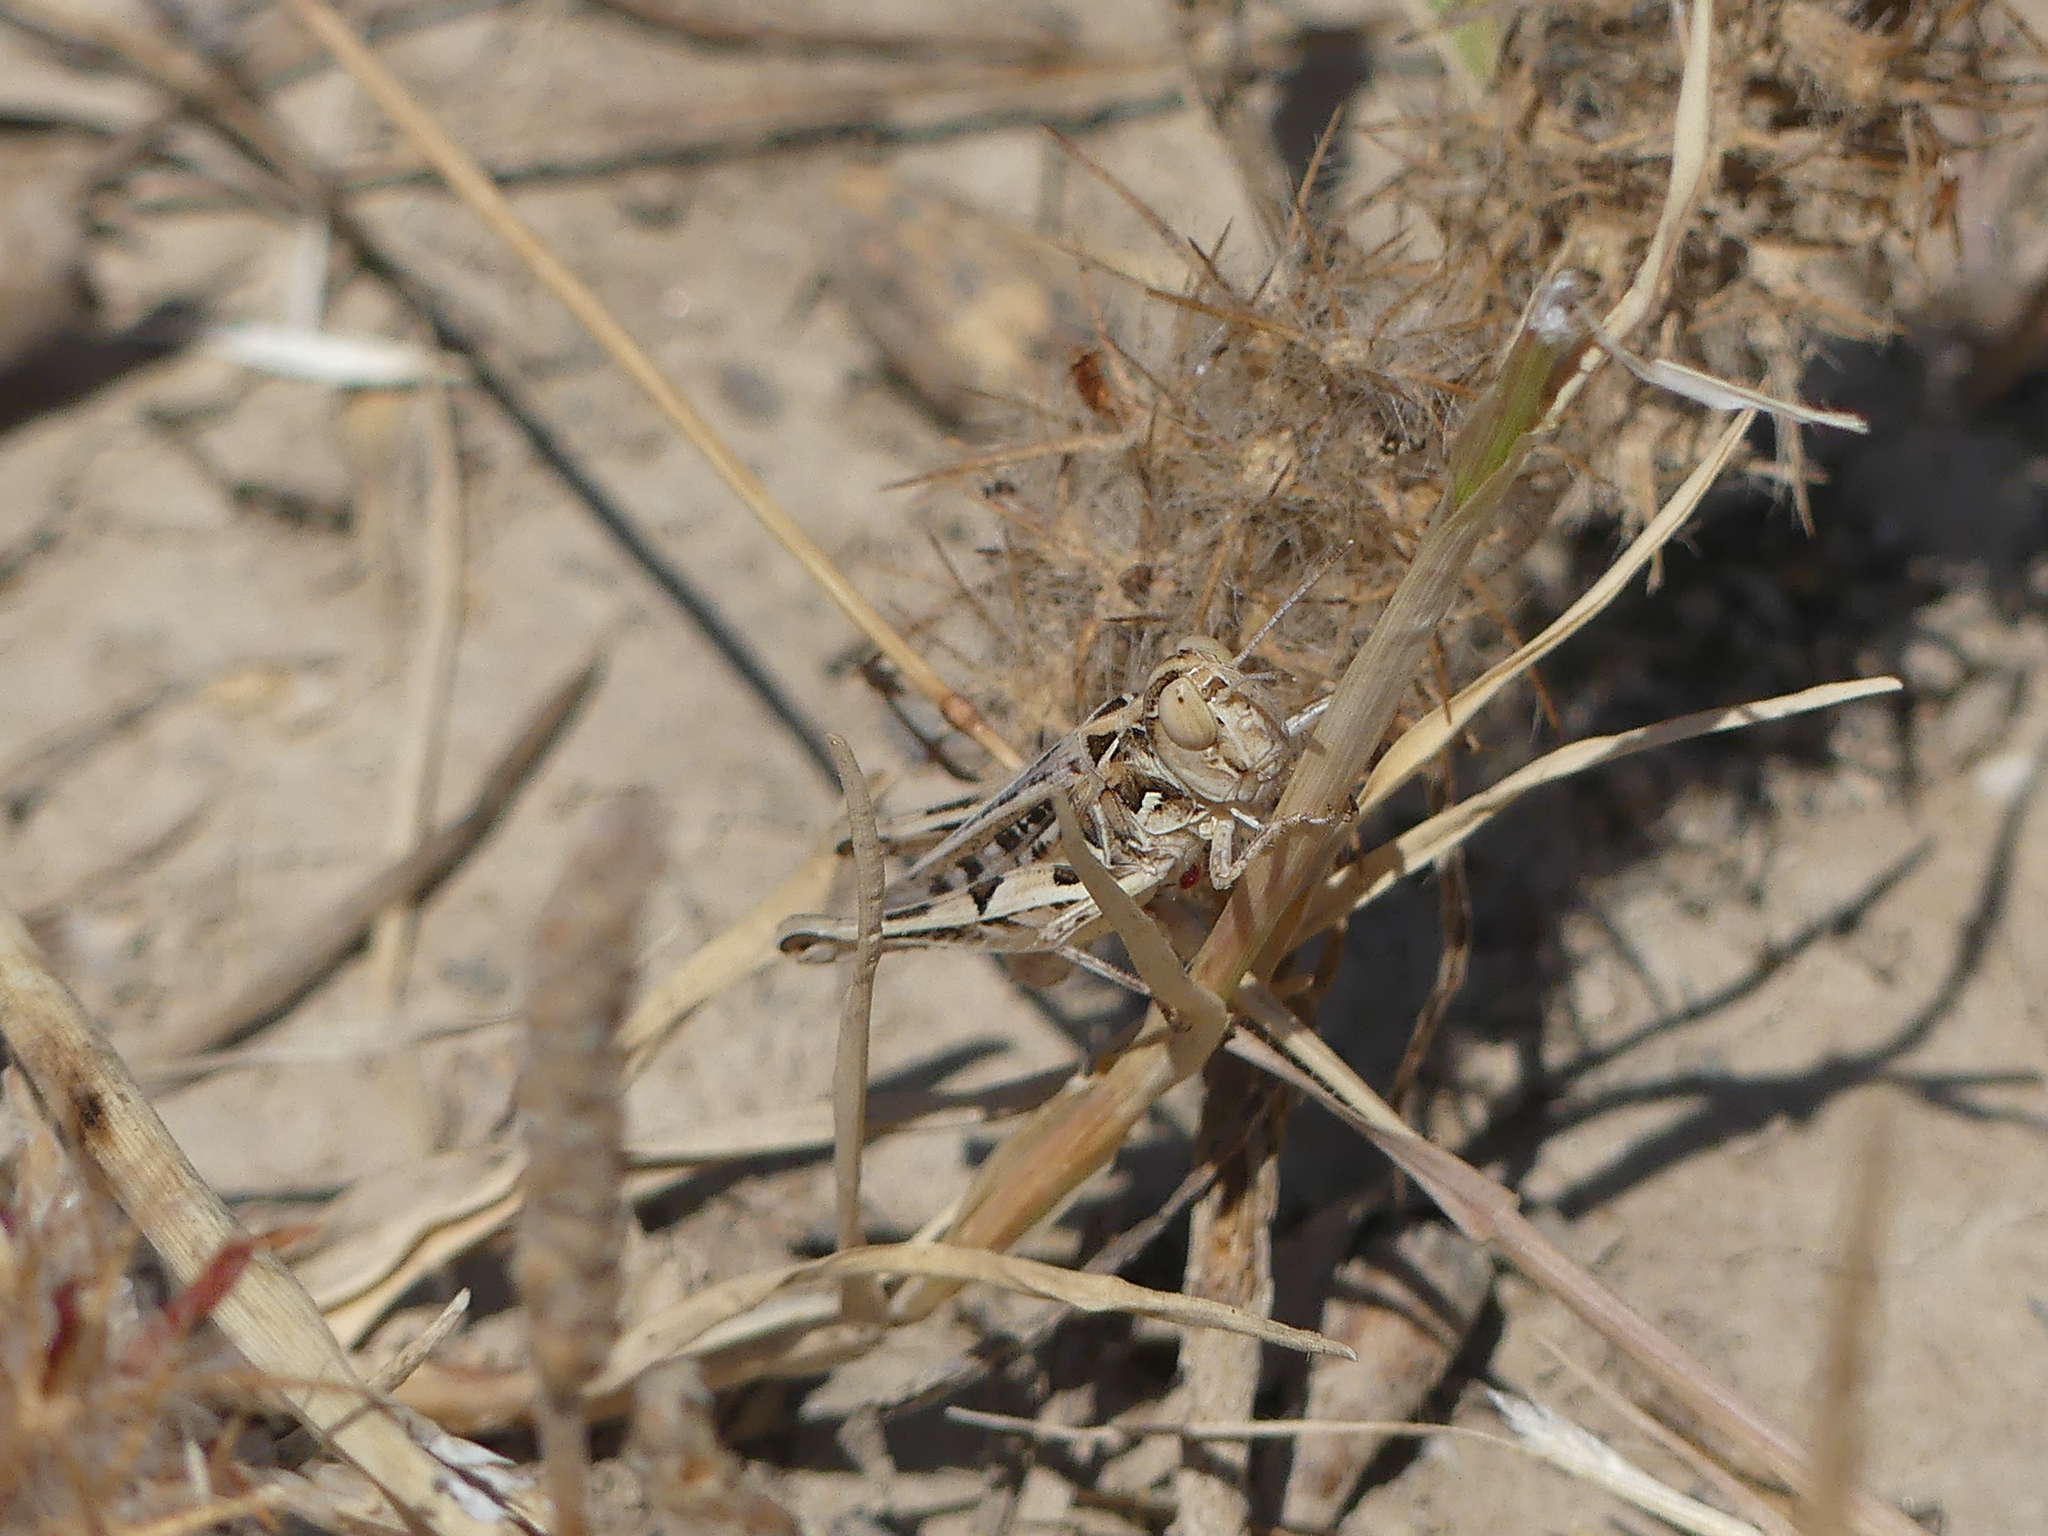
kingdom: Animalia
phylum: Arthropoda
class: Insecta
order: Orthoptera
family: Acrididae
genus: Dociostaurus
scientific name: Dociostaurus jagoi
